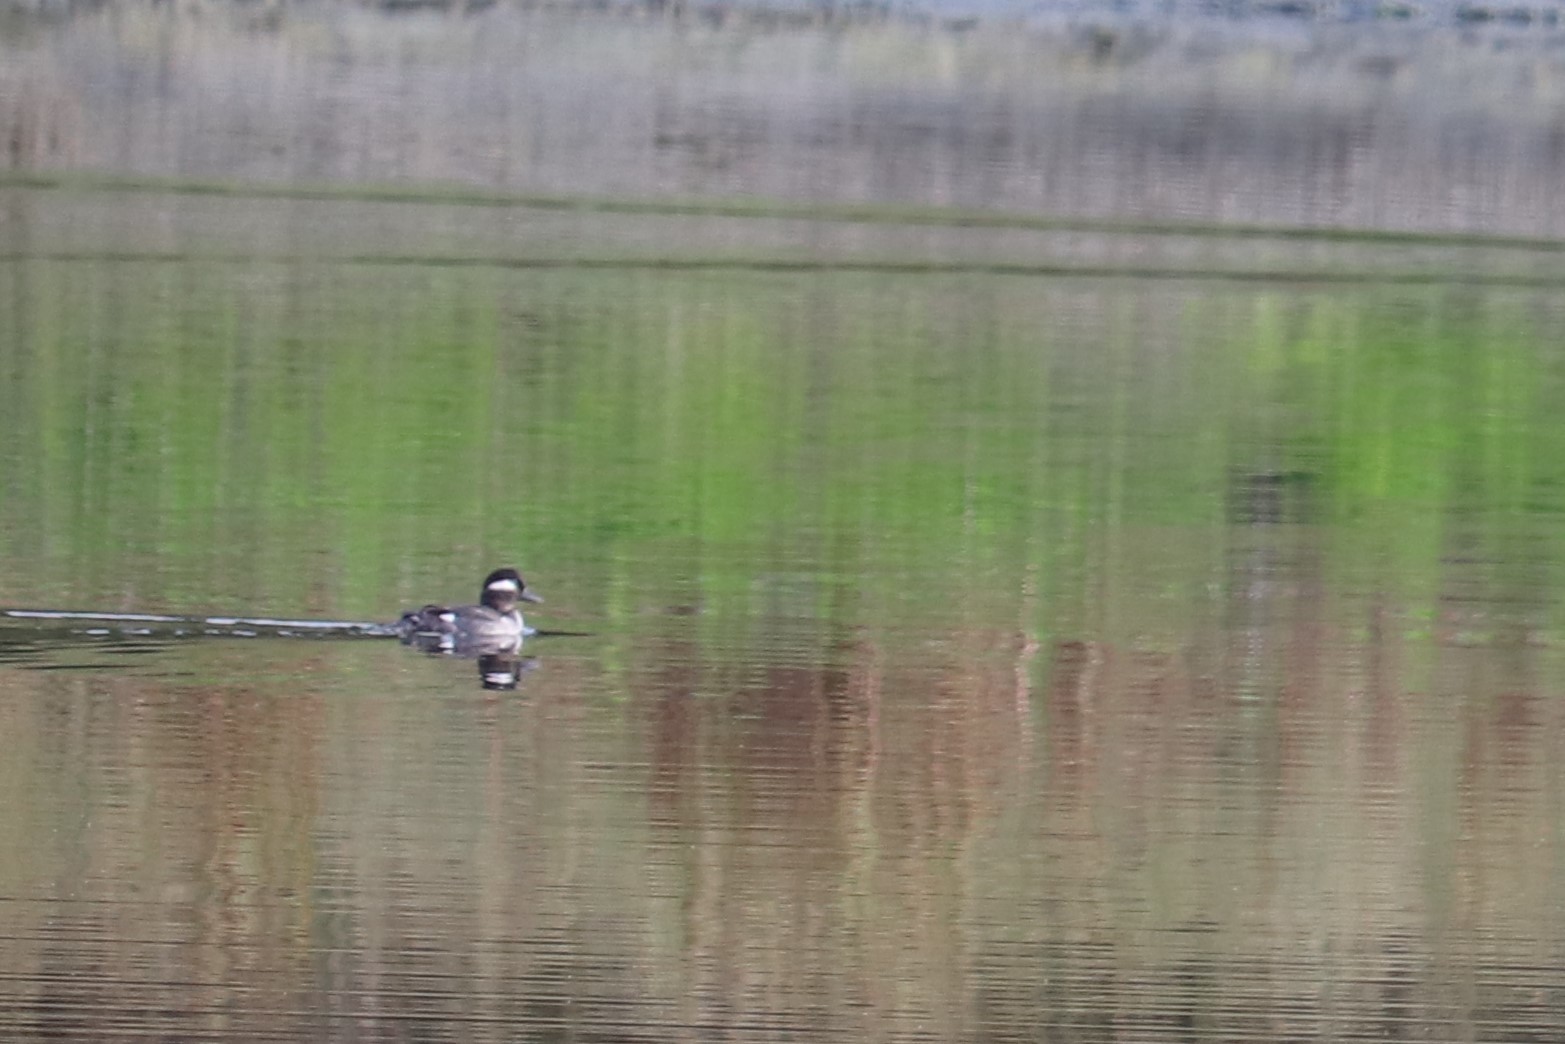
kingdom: Animalia
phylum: Chordata
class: Aves
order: Anseriformes
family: Anatidae
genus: Bucephala
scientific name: Bucephala albeola
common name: Bufflehead
